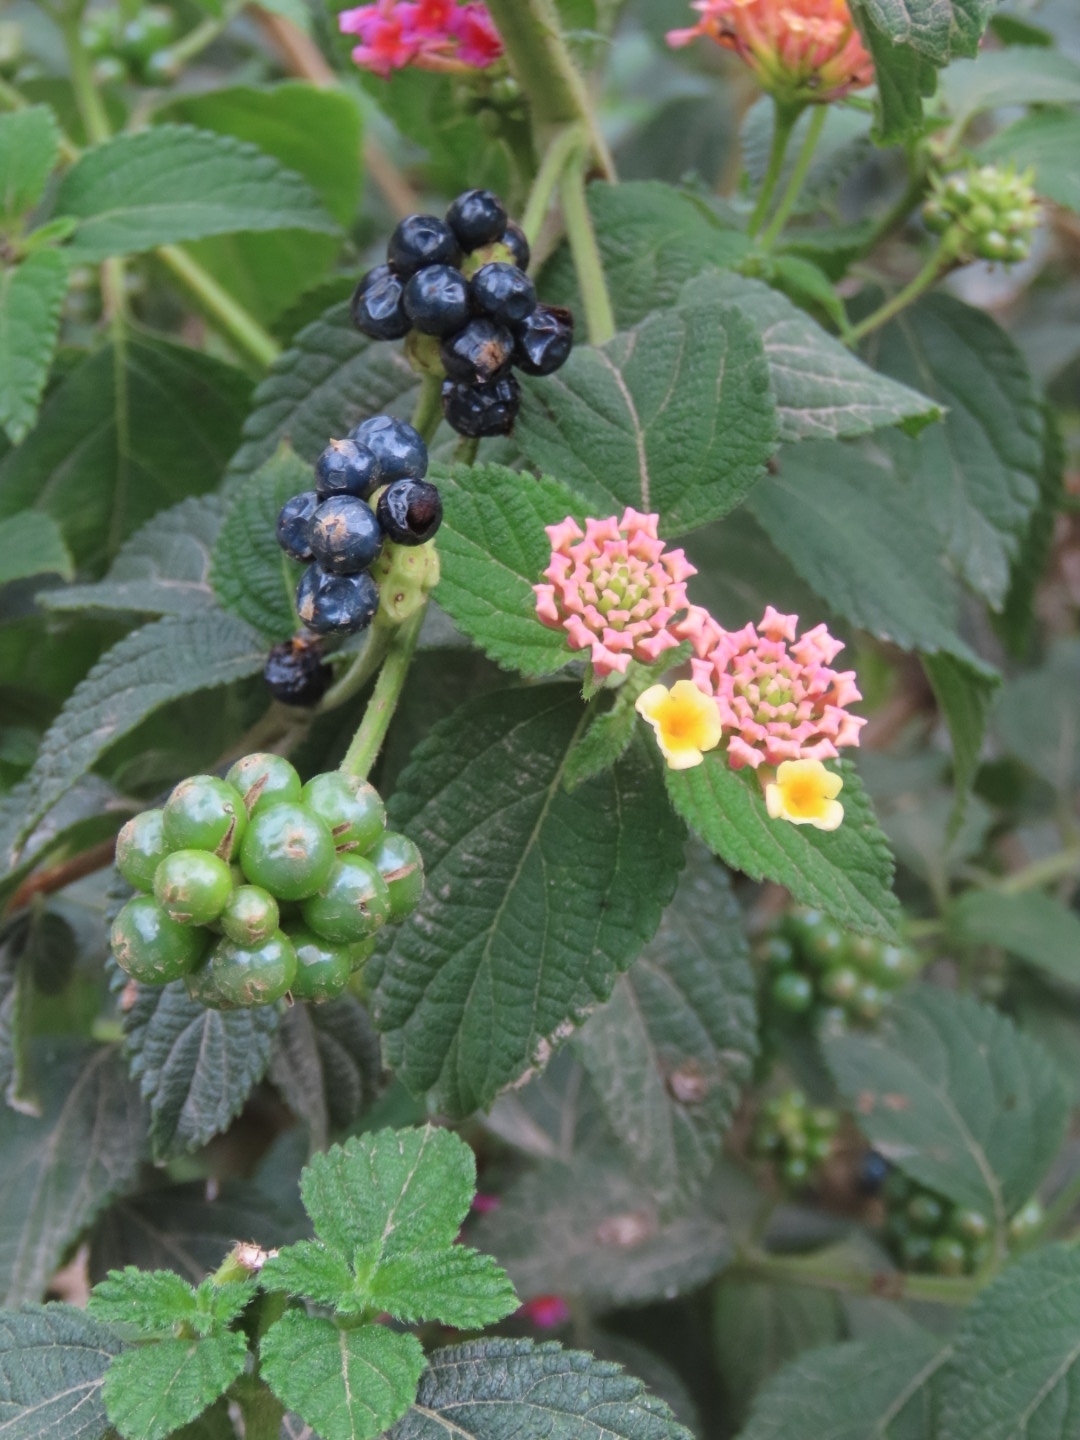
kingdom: Plantae
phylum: Tracheophyta
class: Magnoliopsida
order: Lamiales
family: Verbenaceae
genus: Lantana
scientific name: Lantana camara
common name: Lantana
